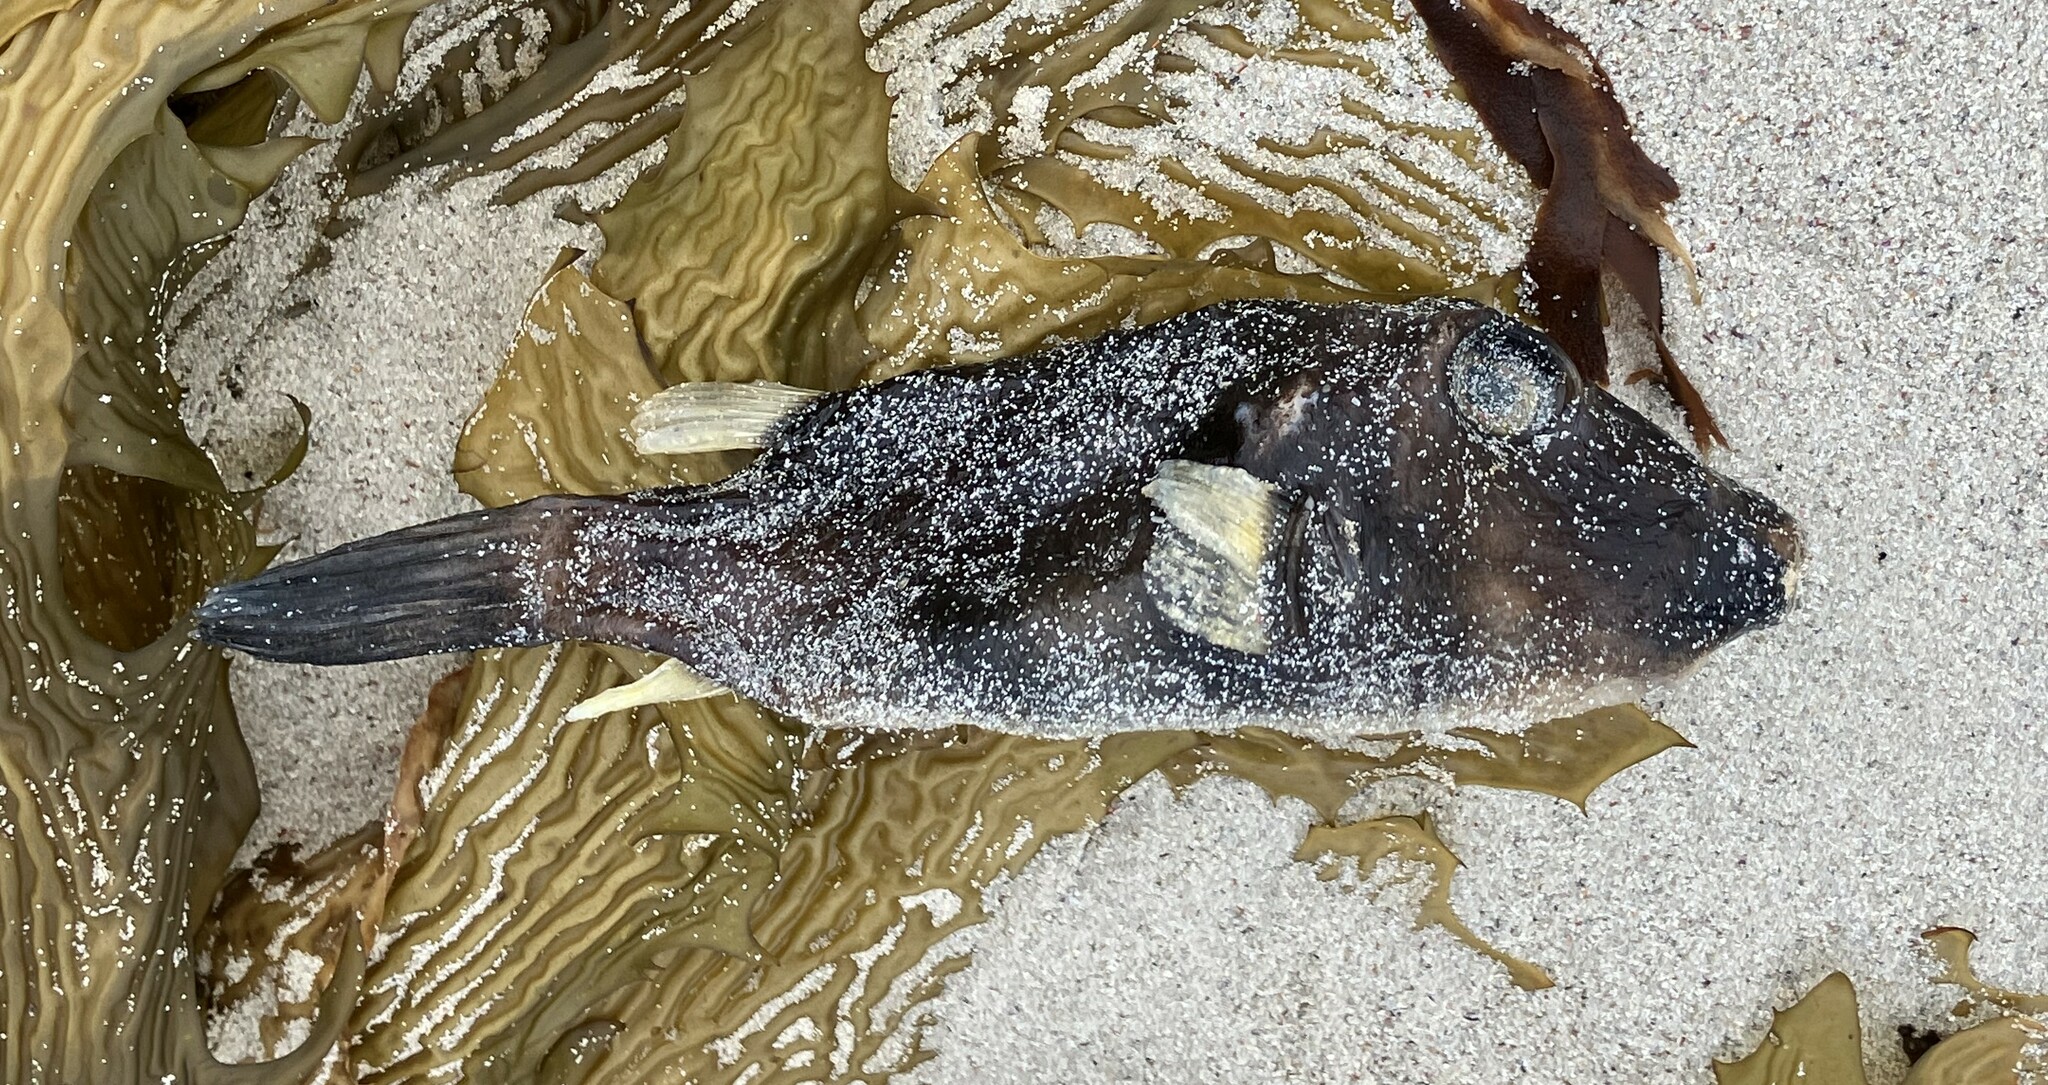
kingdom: Animalia
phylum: Chordata
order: Tetraodontiformes
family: Tetraodontidae
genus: Omegophora
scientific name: Omegophora cyanopunctata
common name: Bluespotted toadfish
